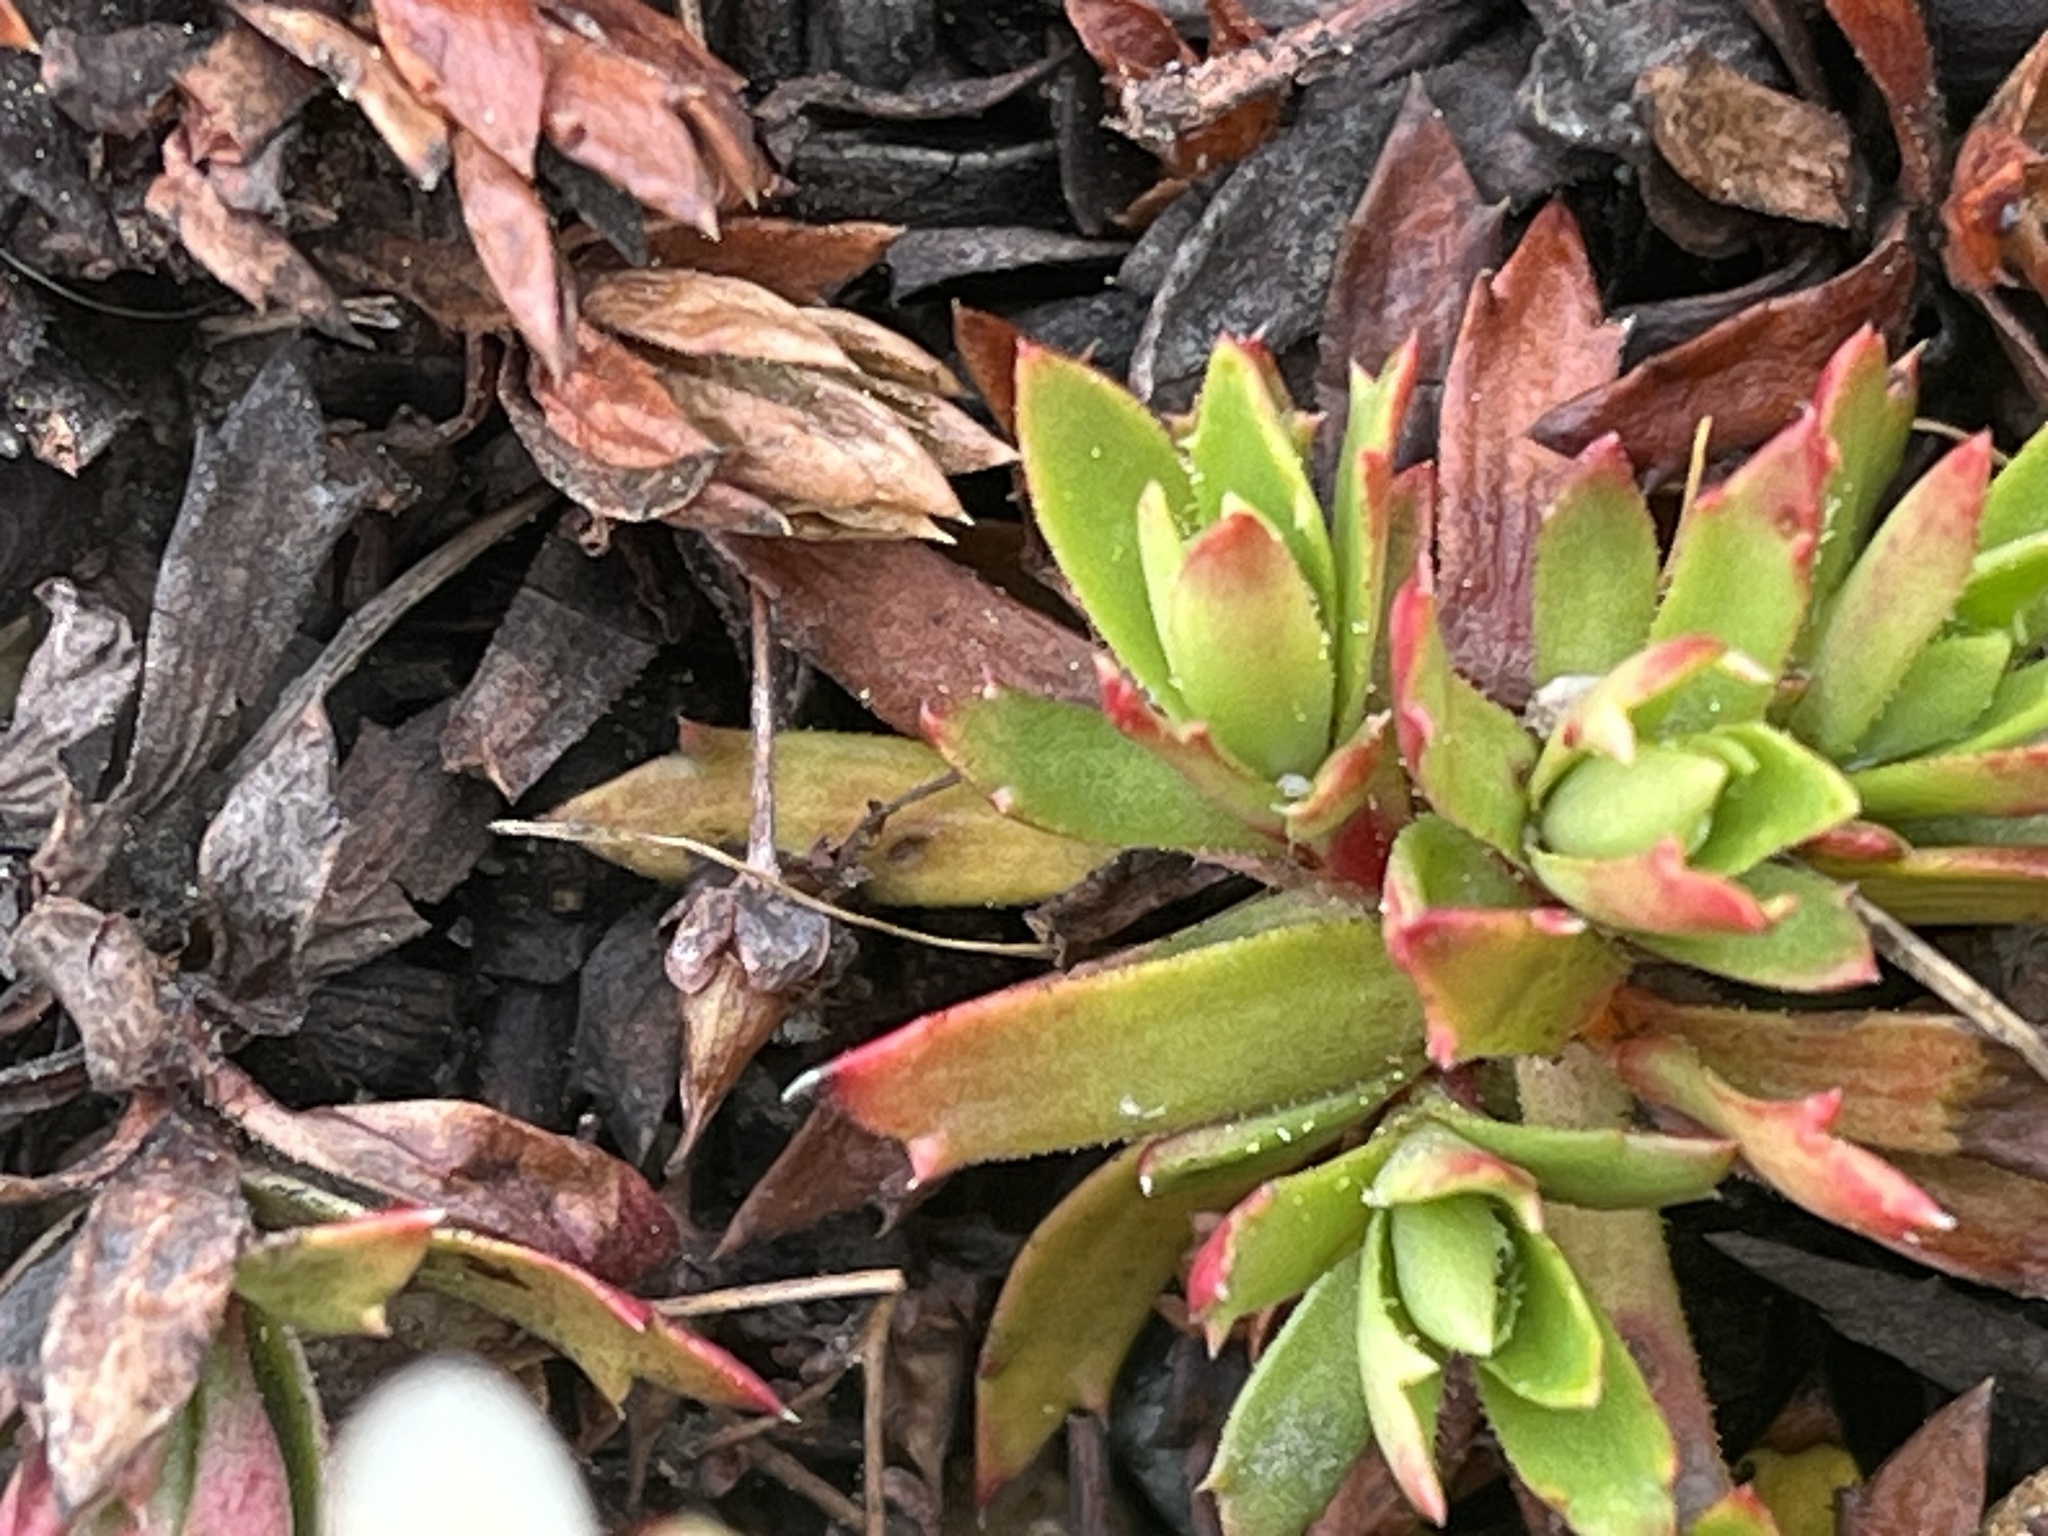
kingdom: Plantae
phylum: Tracheophyta
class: Magnoliopsida
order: Saxifragales
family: Saxifragaceae
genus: Saxifraga
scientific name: Saxifraga tricuspidata
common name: Prickly saxifrage
